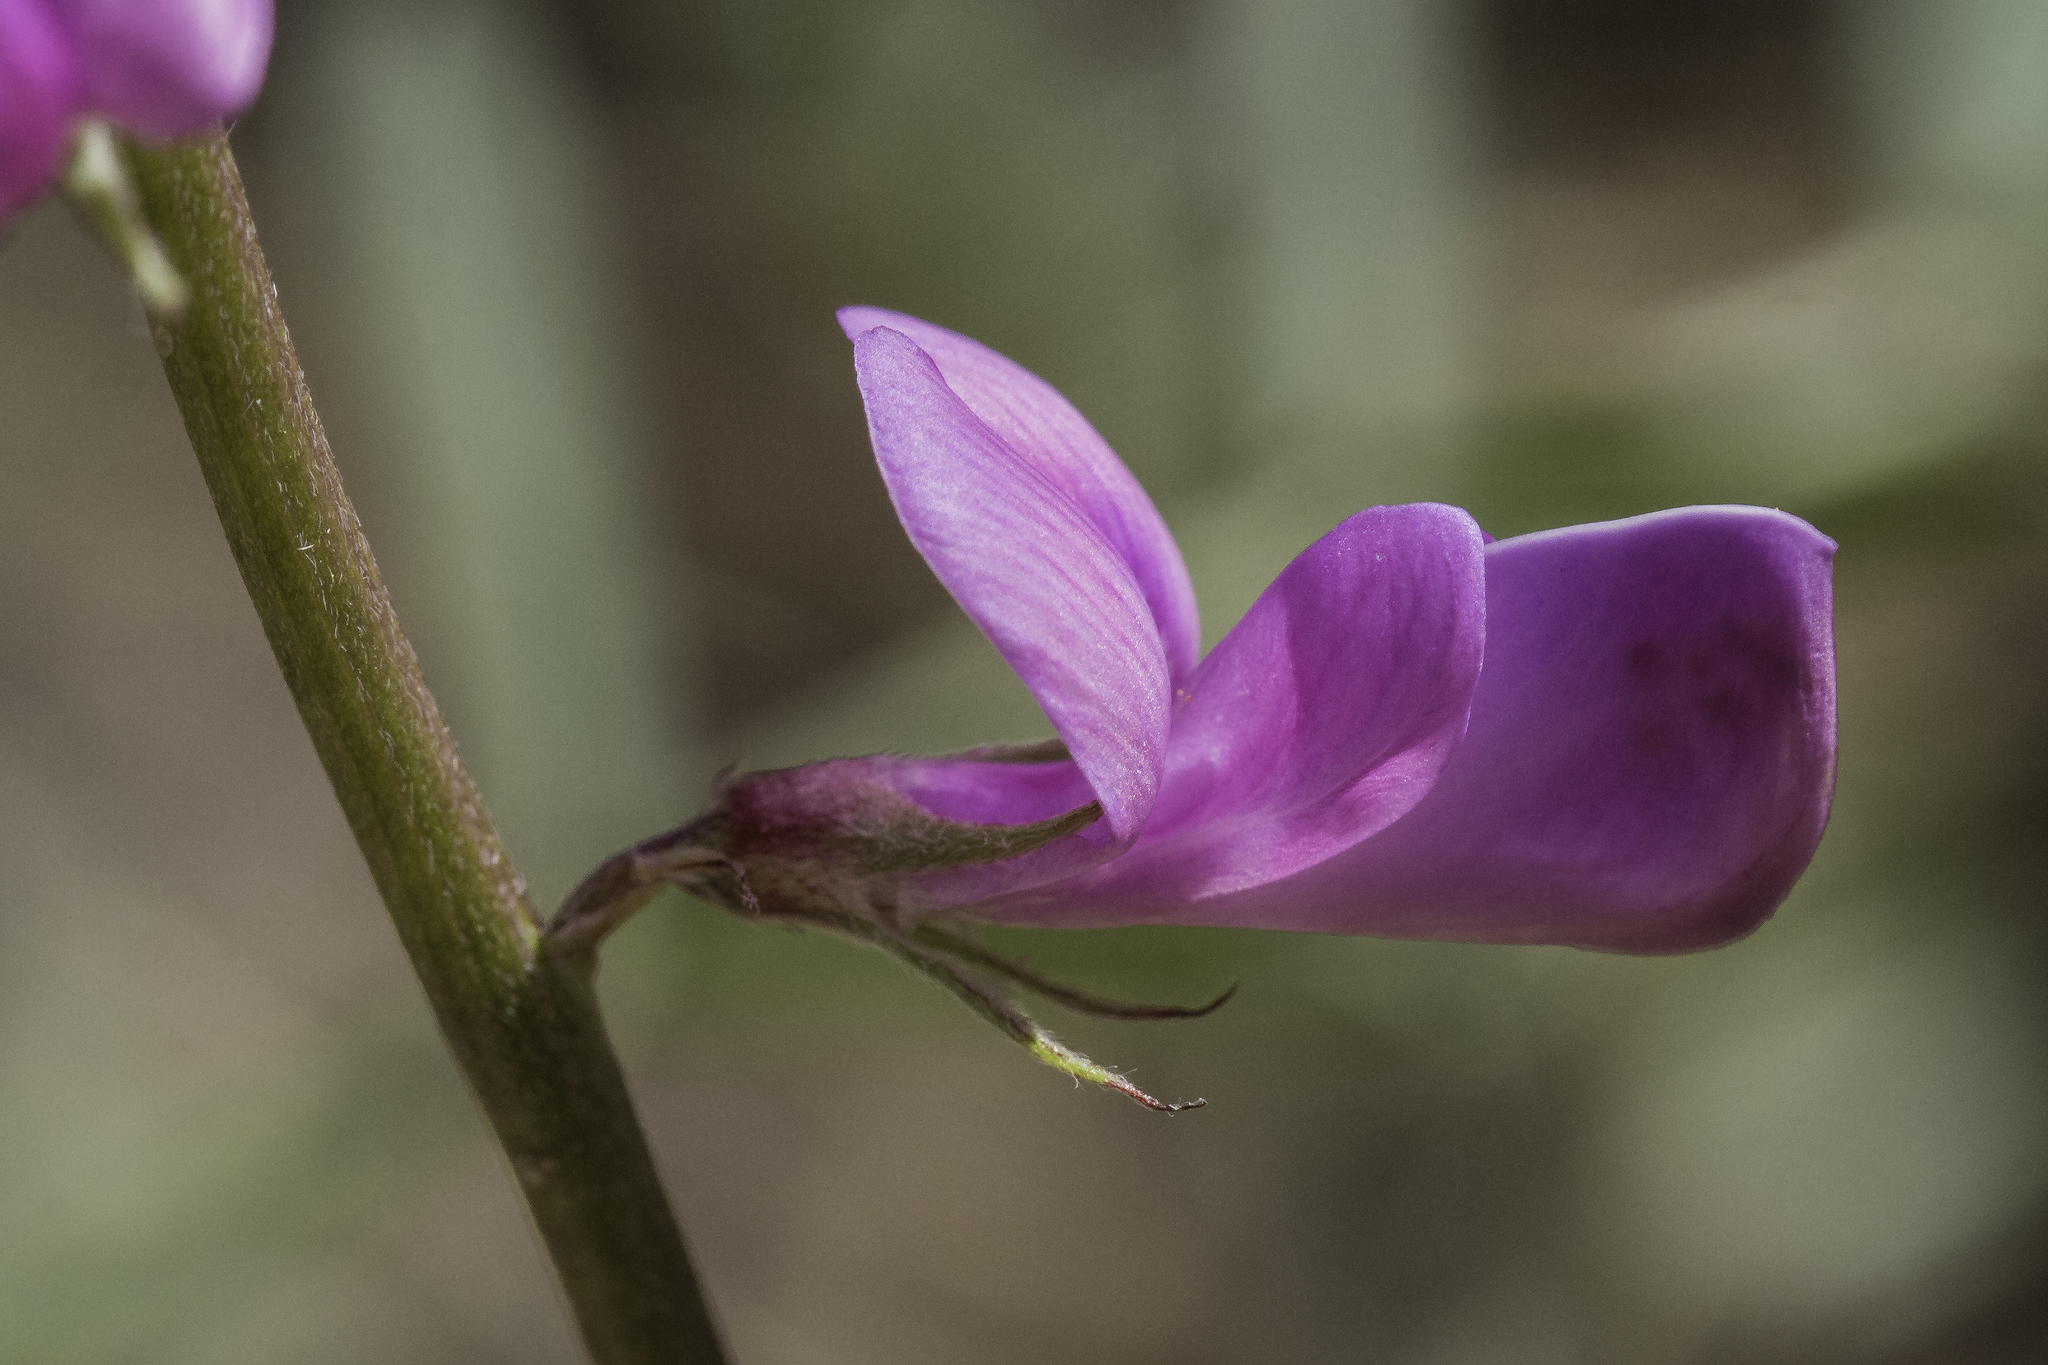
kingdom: Plantae
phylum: Tracheophyta
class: Magnoliopsida
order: Fabales
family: Fabaceae
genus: Hedysarum
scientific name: Hedysarum boreale
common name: Northern sweet-vetch
